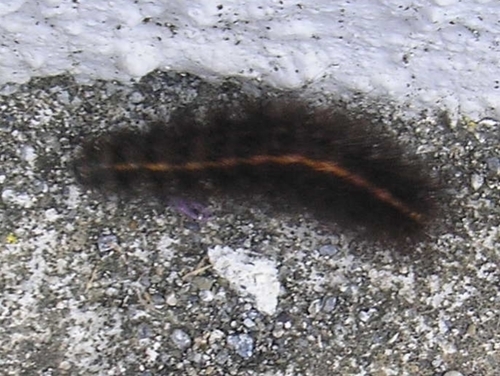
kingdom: Animalia
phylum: Arthropoda
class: Insecta
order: Lepidoptera
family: Erebidae
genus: Spilosoma
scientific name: Spilosoma lubricipeda
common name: White ermine
